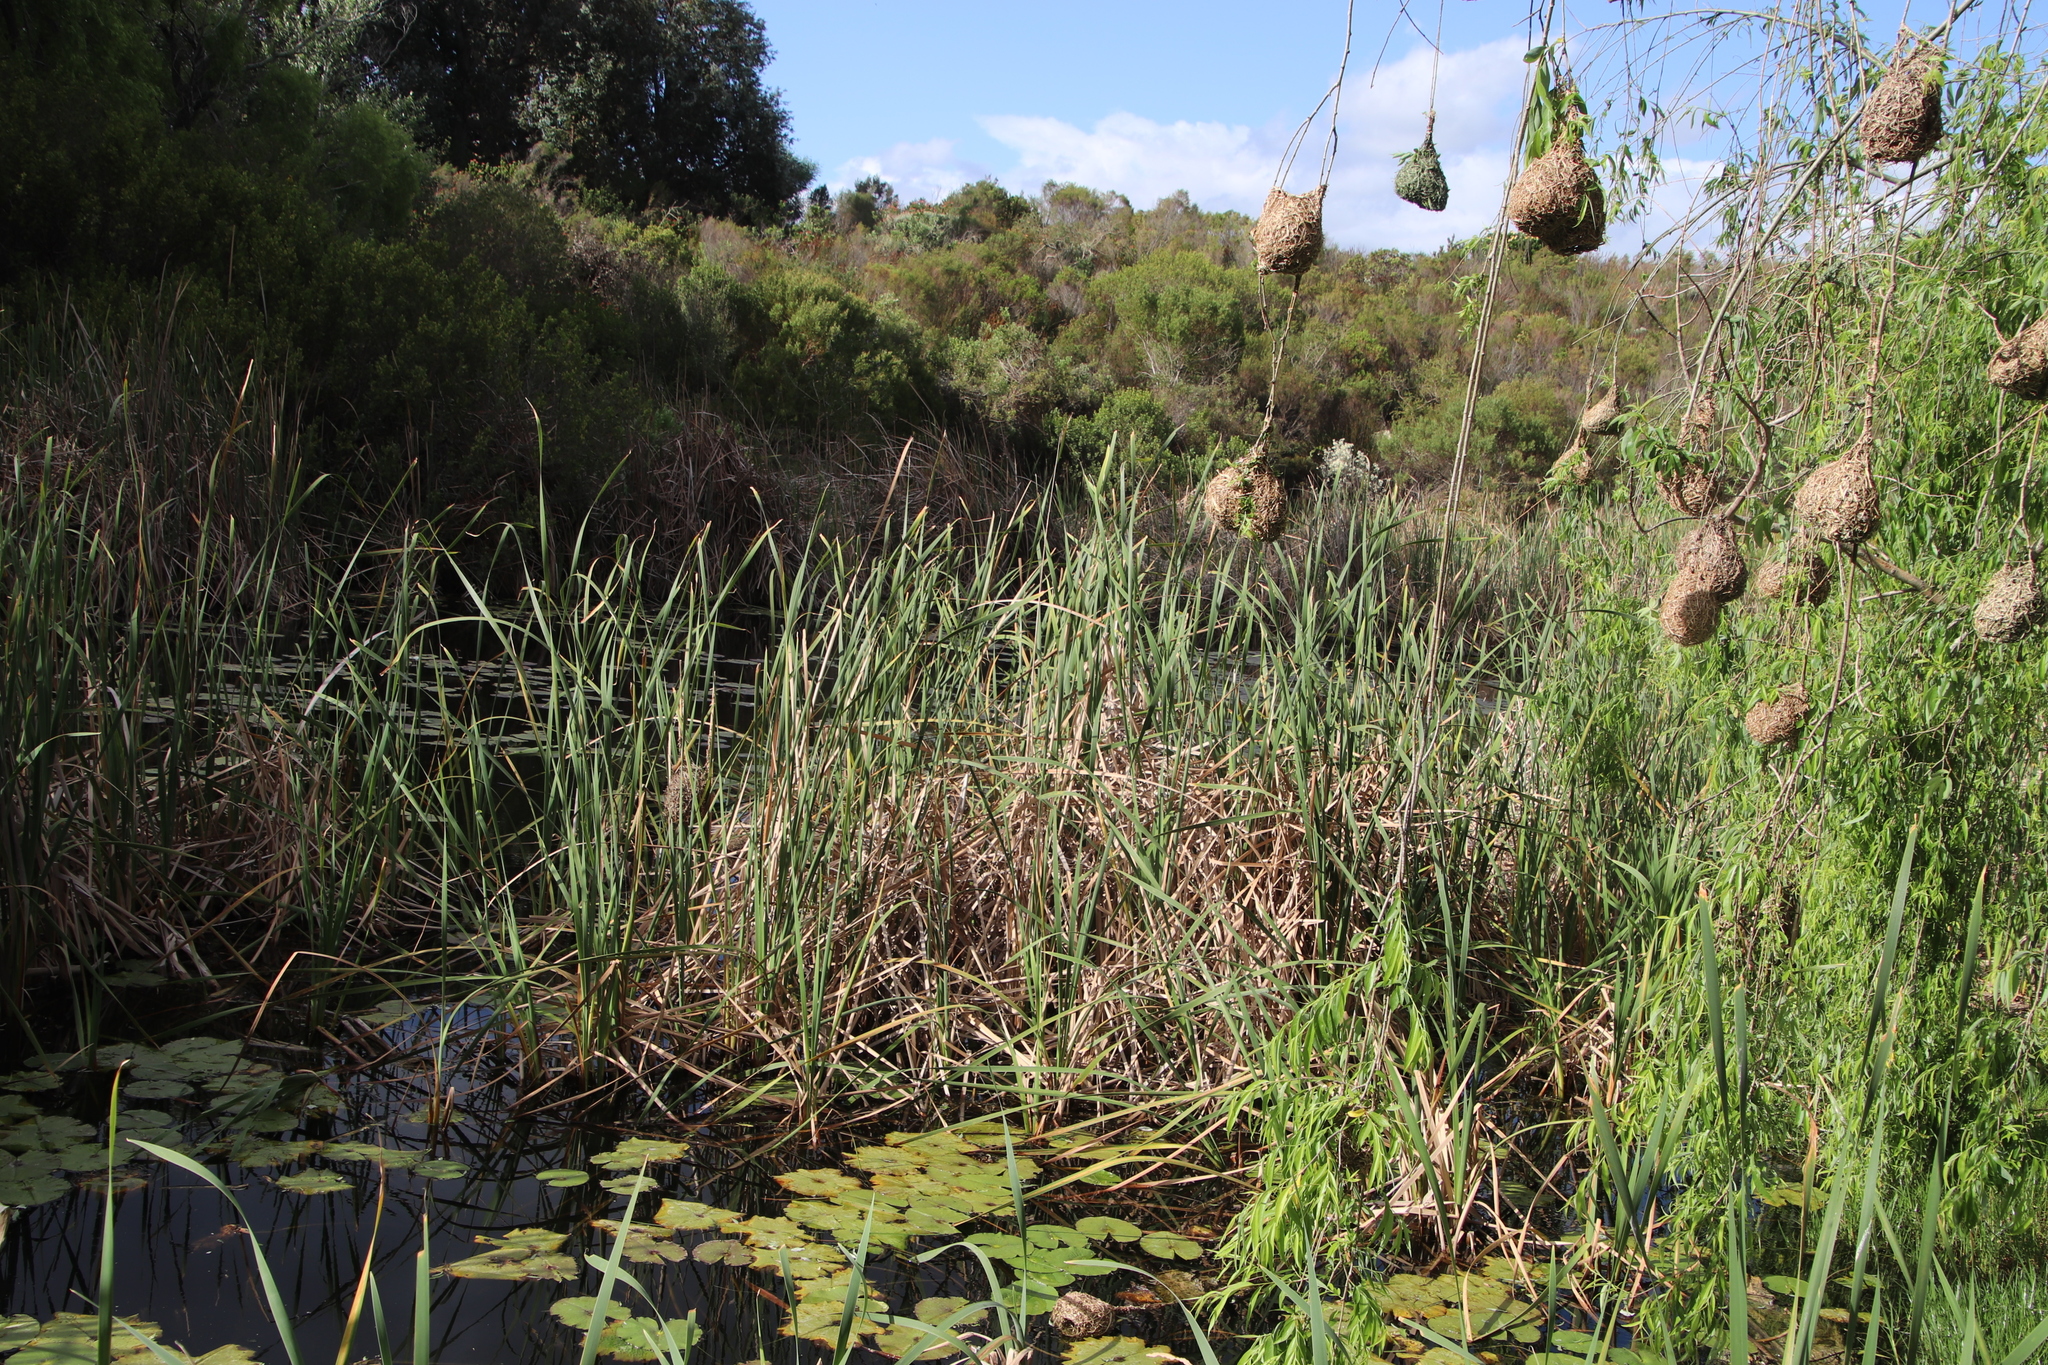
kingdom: Plantae
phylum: Tracheophyta
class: Liliopsida
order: Poales
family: Typhaceae
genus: Typha
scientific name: Typha capensis
